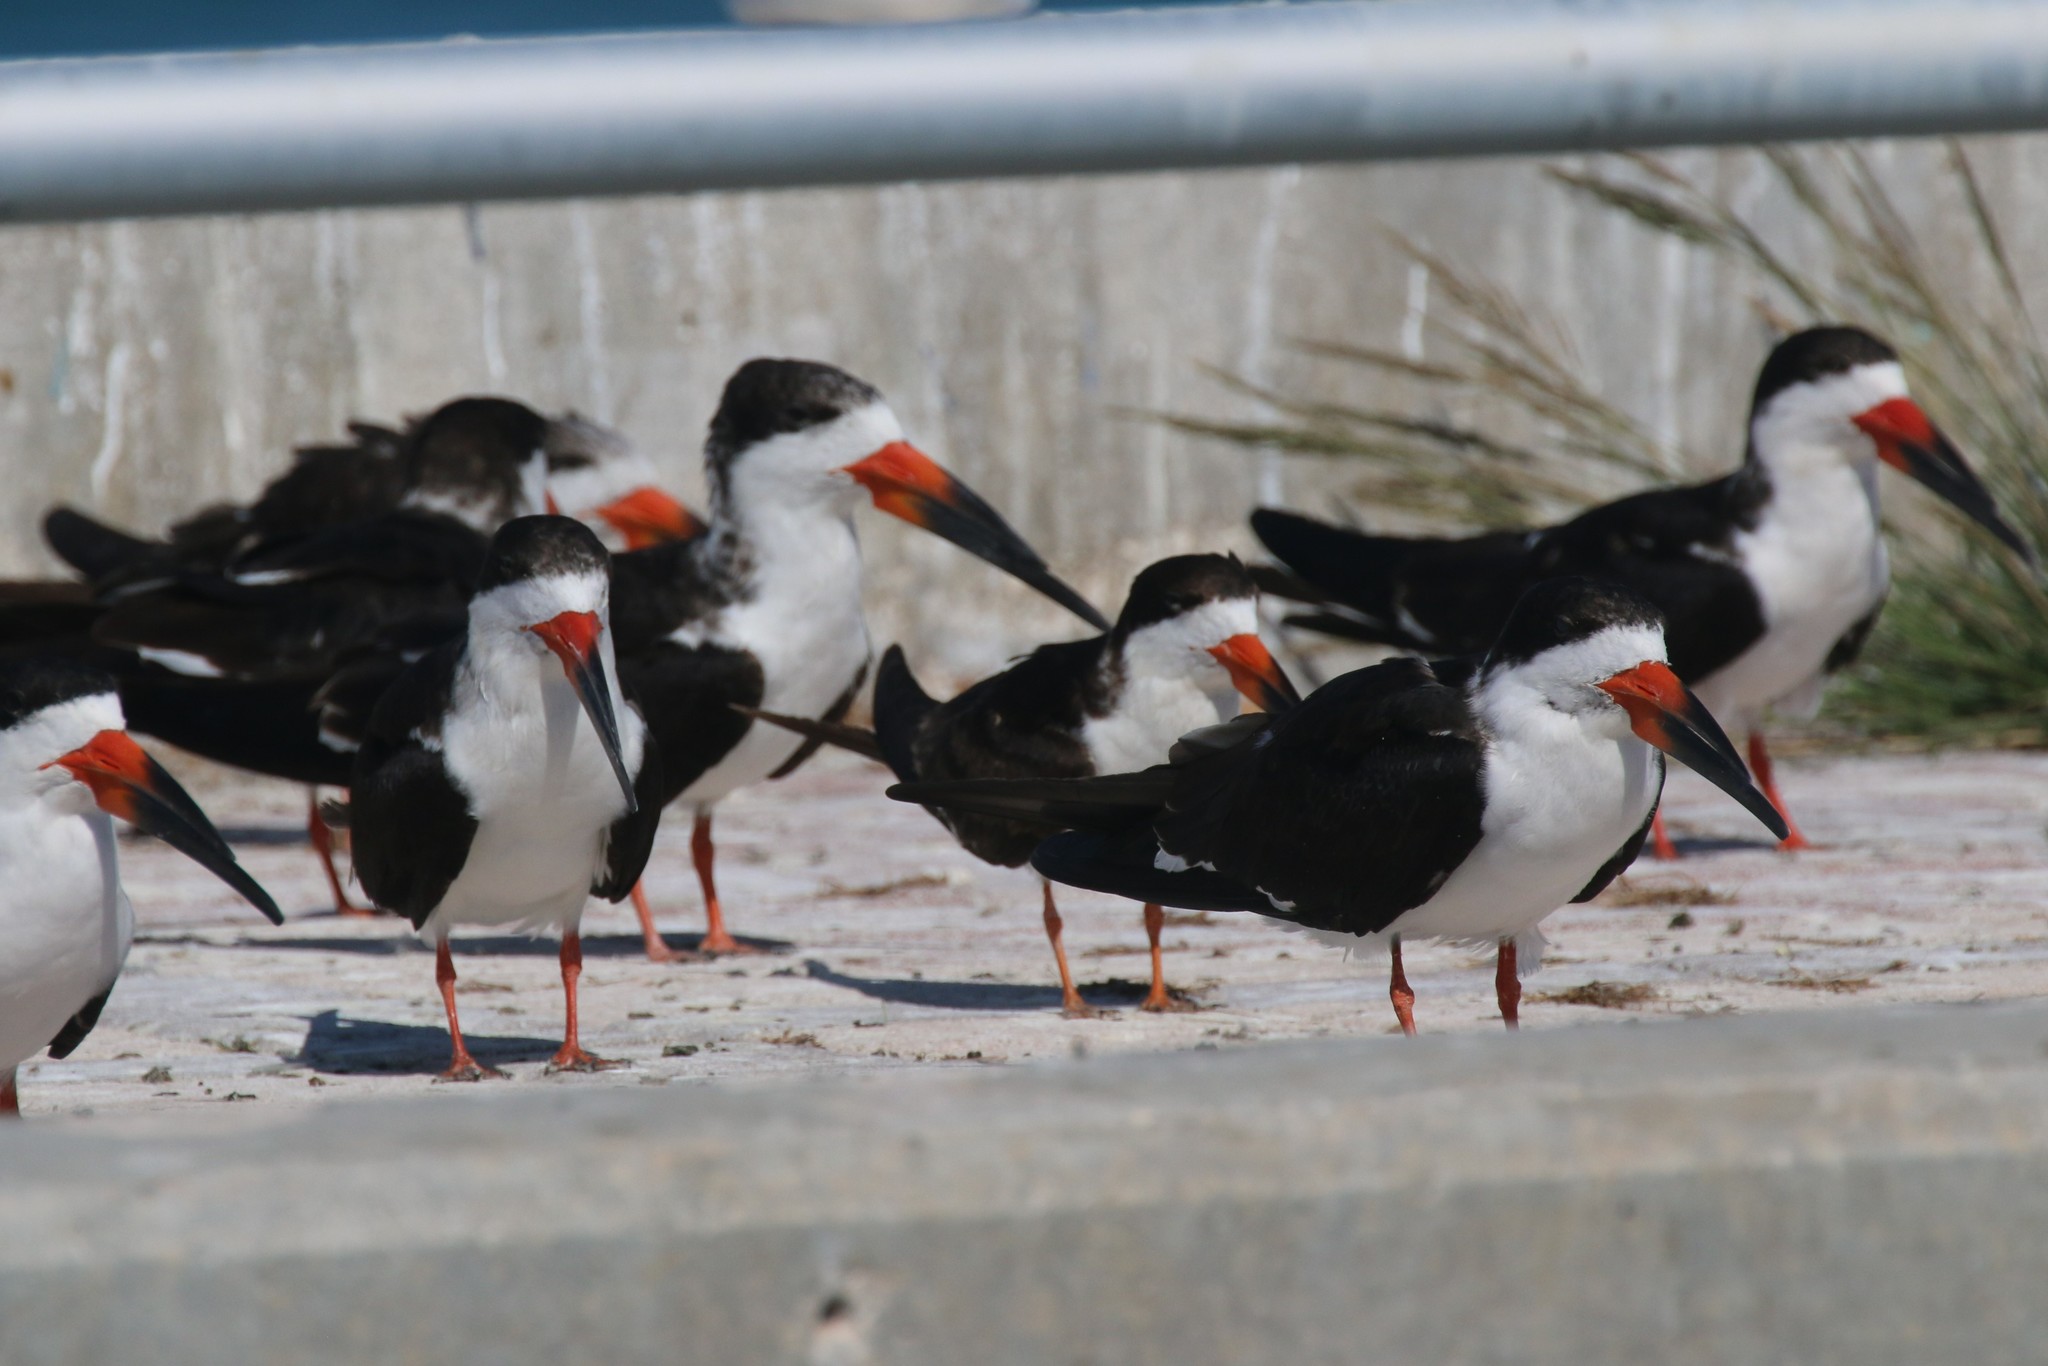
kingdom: Animalia
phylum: Chordata
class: Aves
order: Charadriiformes
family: Laridae
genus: Rynchops
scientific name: Rynchops niger
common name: Black skimmer
